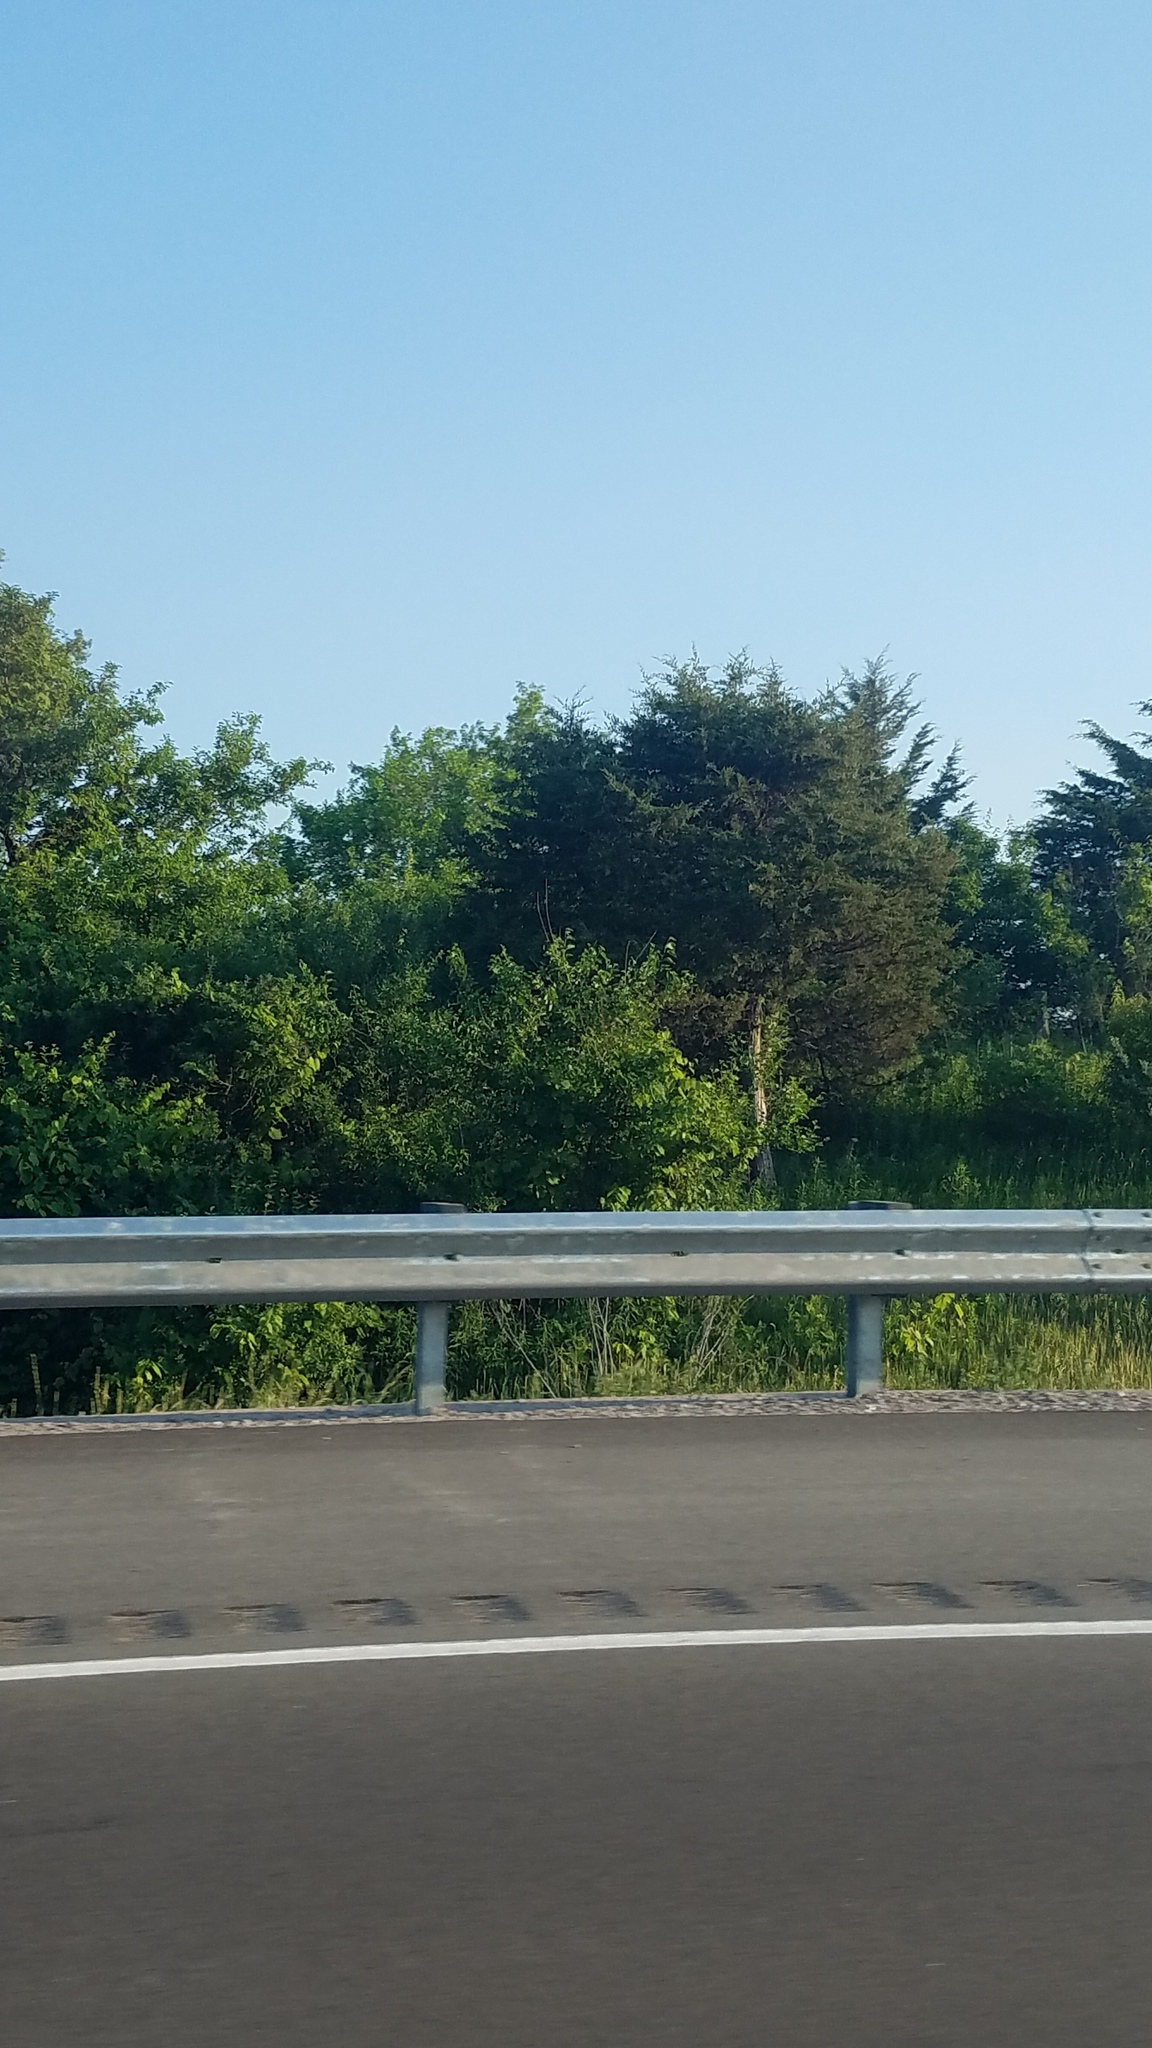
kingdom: Plantae
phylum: Tracheophyta
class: Pinopsida
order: Pinales
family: Cupressaceae
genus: Juniperus
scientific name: Juniperus virginiana
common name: Red juniper
